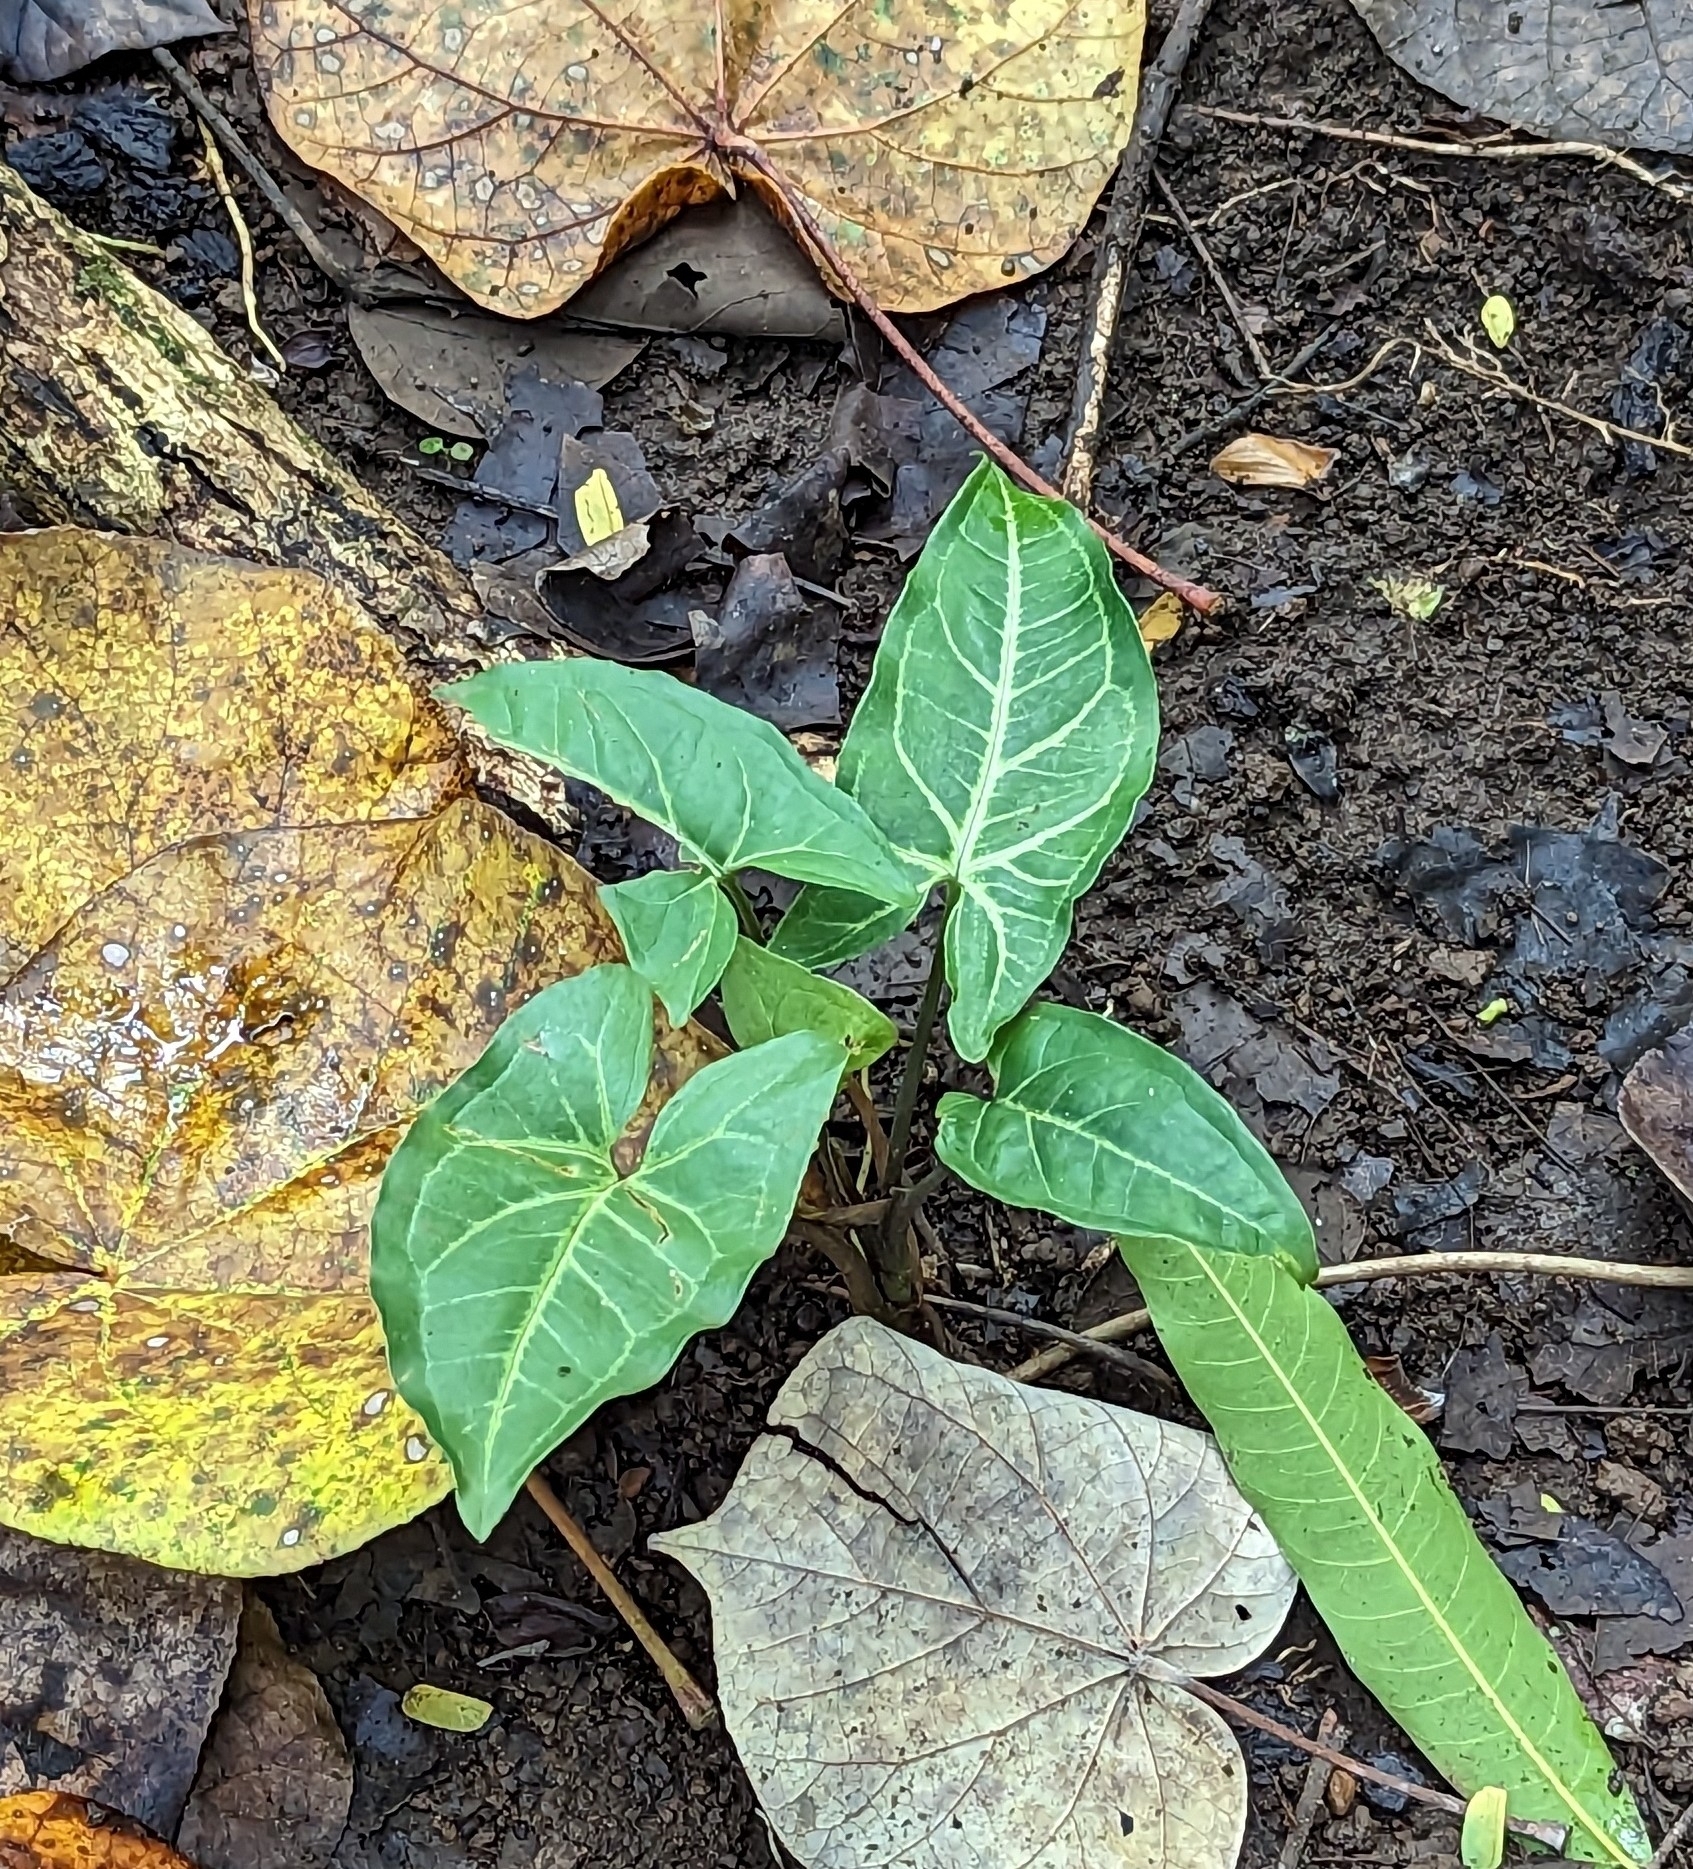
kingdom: Plantae
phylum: Tracheophyta
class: Liliopsida
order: Alismatales
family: Araceae
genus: Syngonium
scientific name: Syngonium podophyllum
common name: American evergreen
